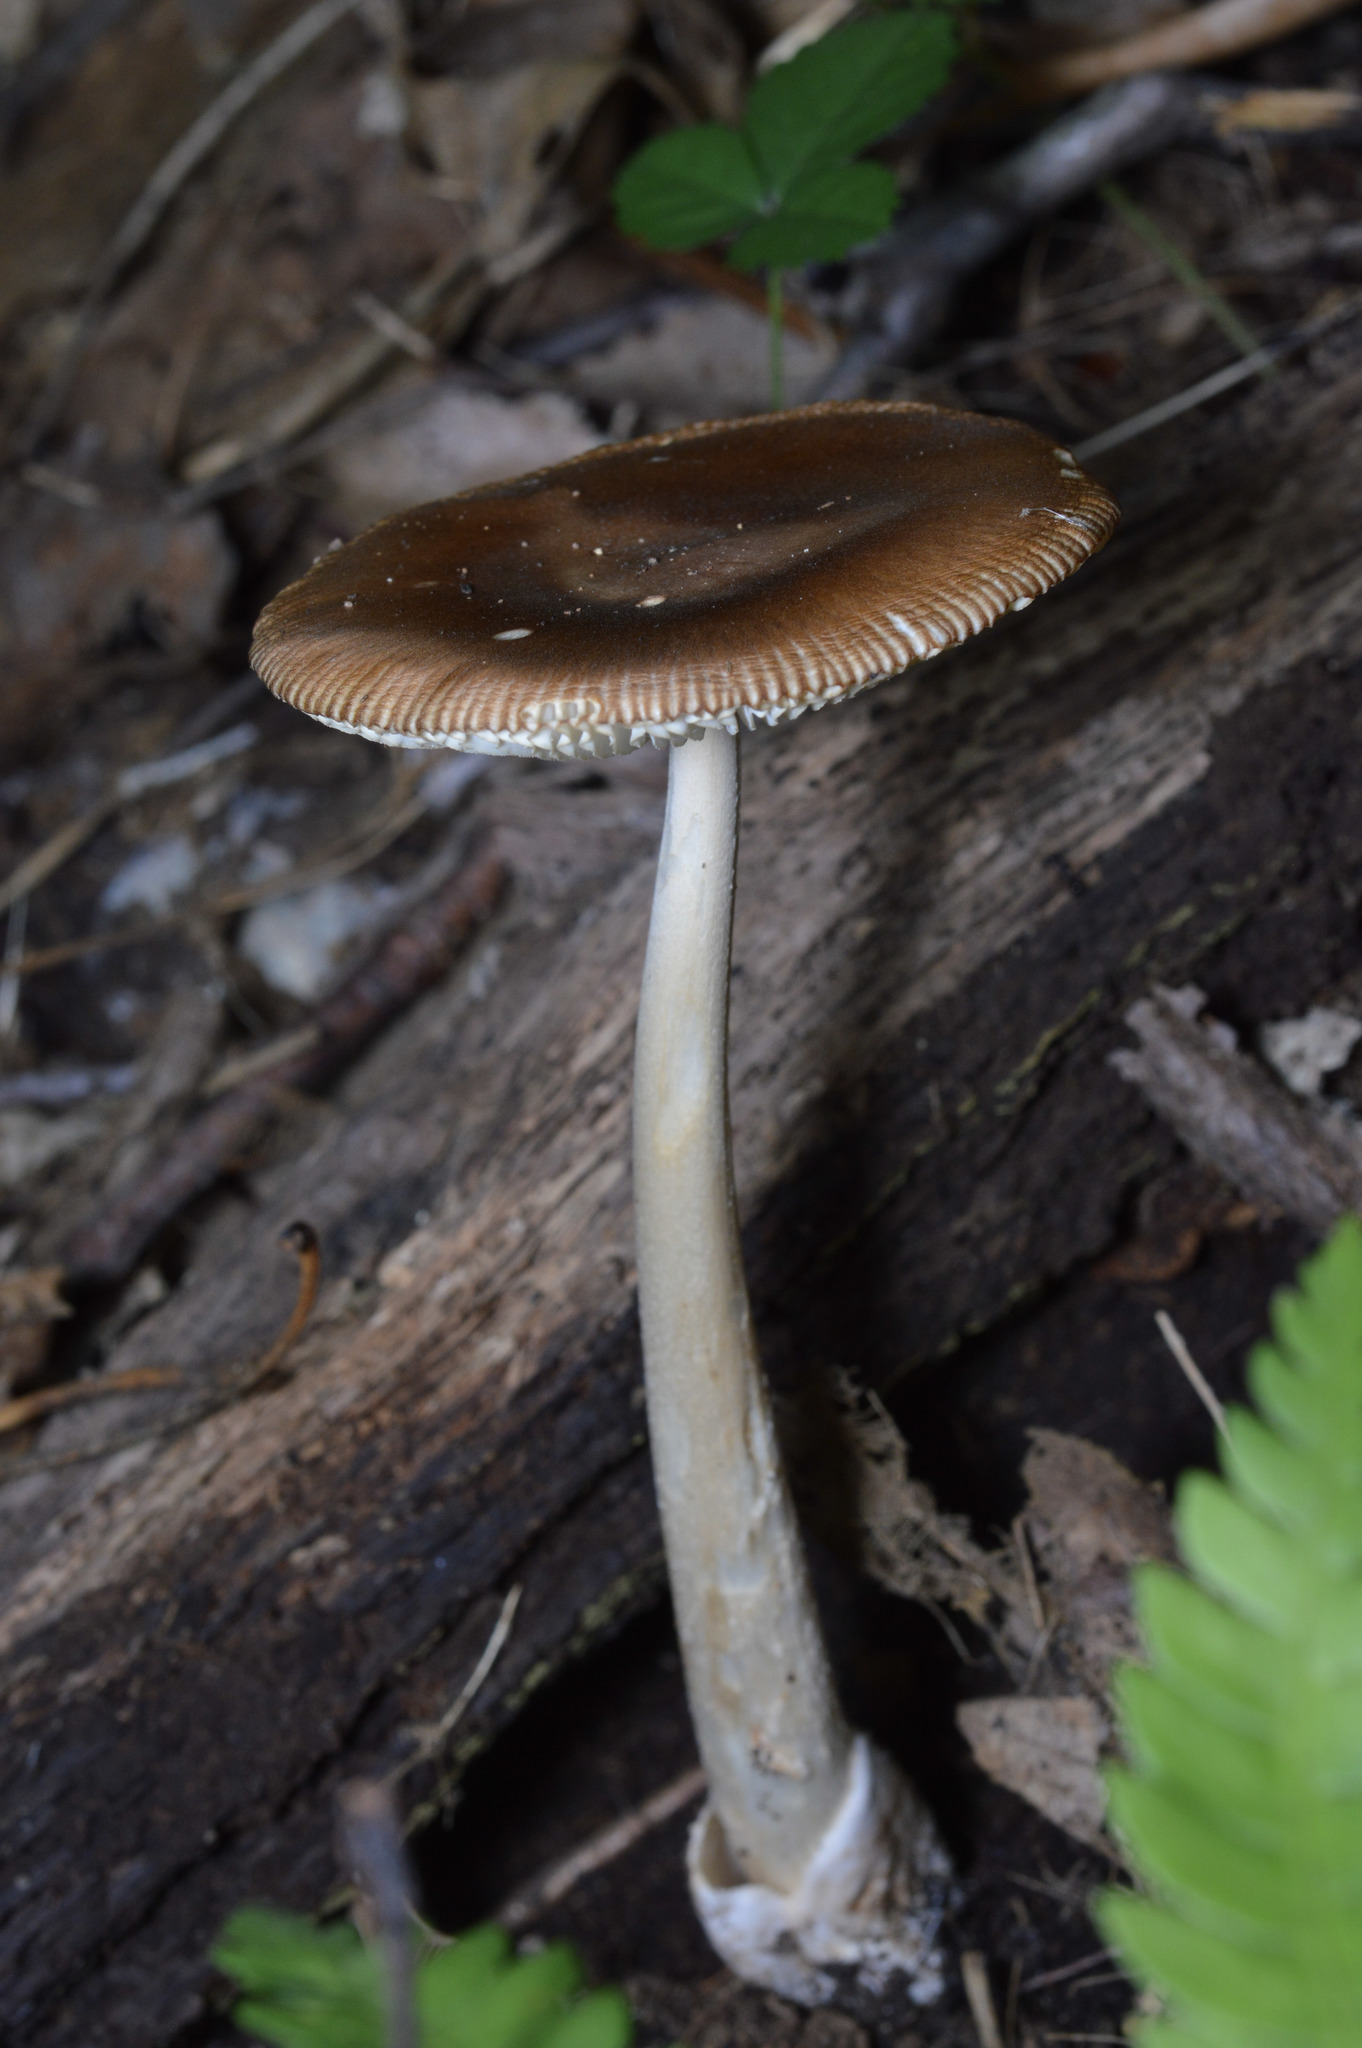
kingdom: Fungi
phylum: Basidiomycota
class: Agaricomycetes
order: Agaricales
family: Amanitaceae
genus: Amanita
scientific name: Amanita fulva
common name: Tawny grisette
